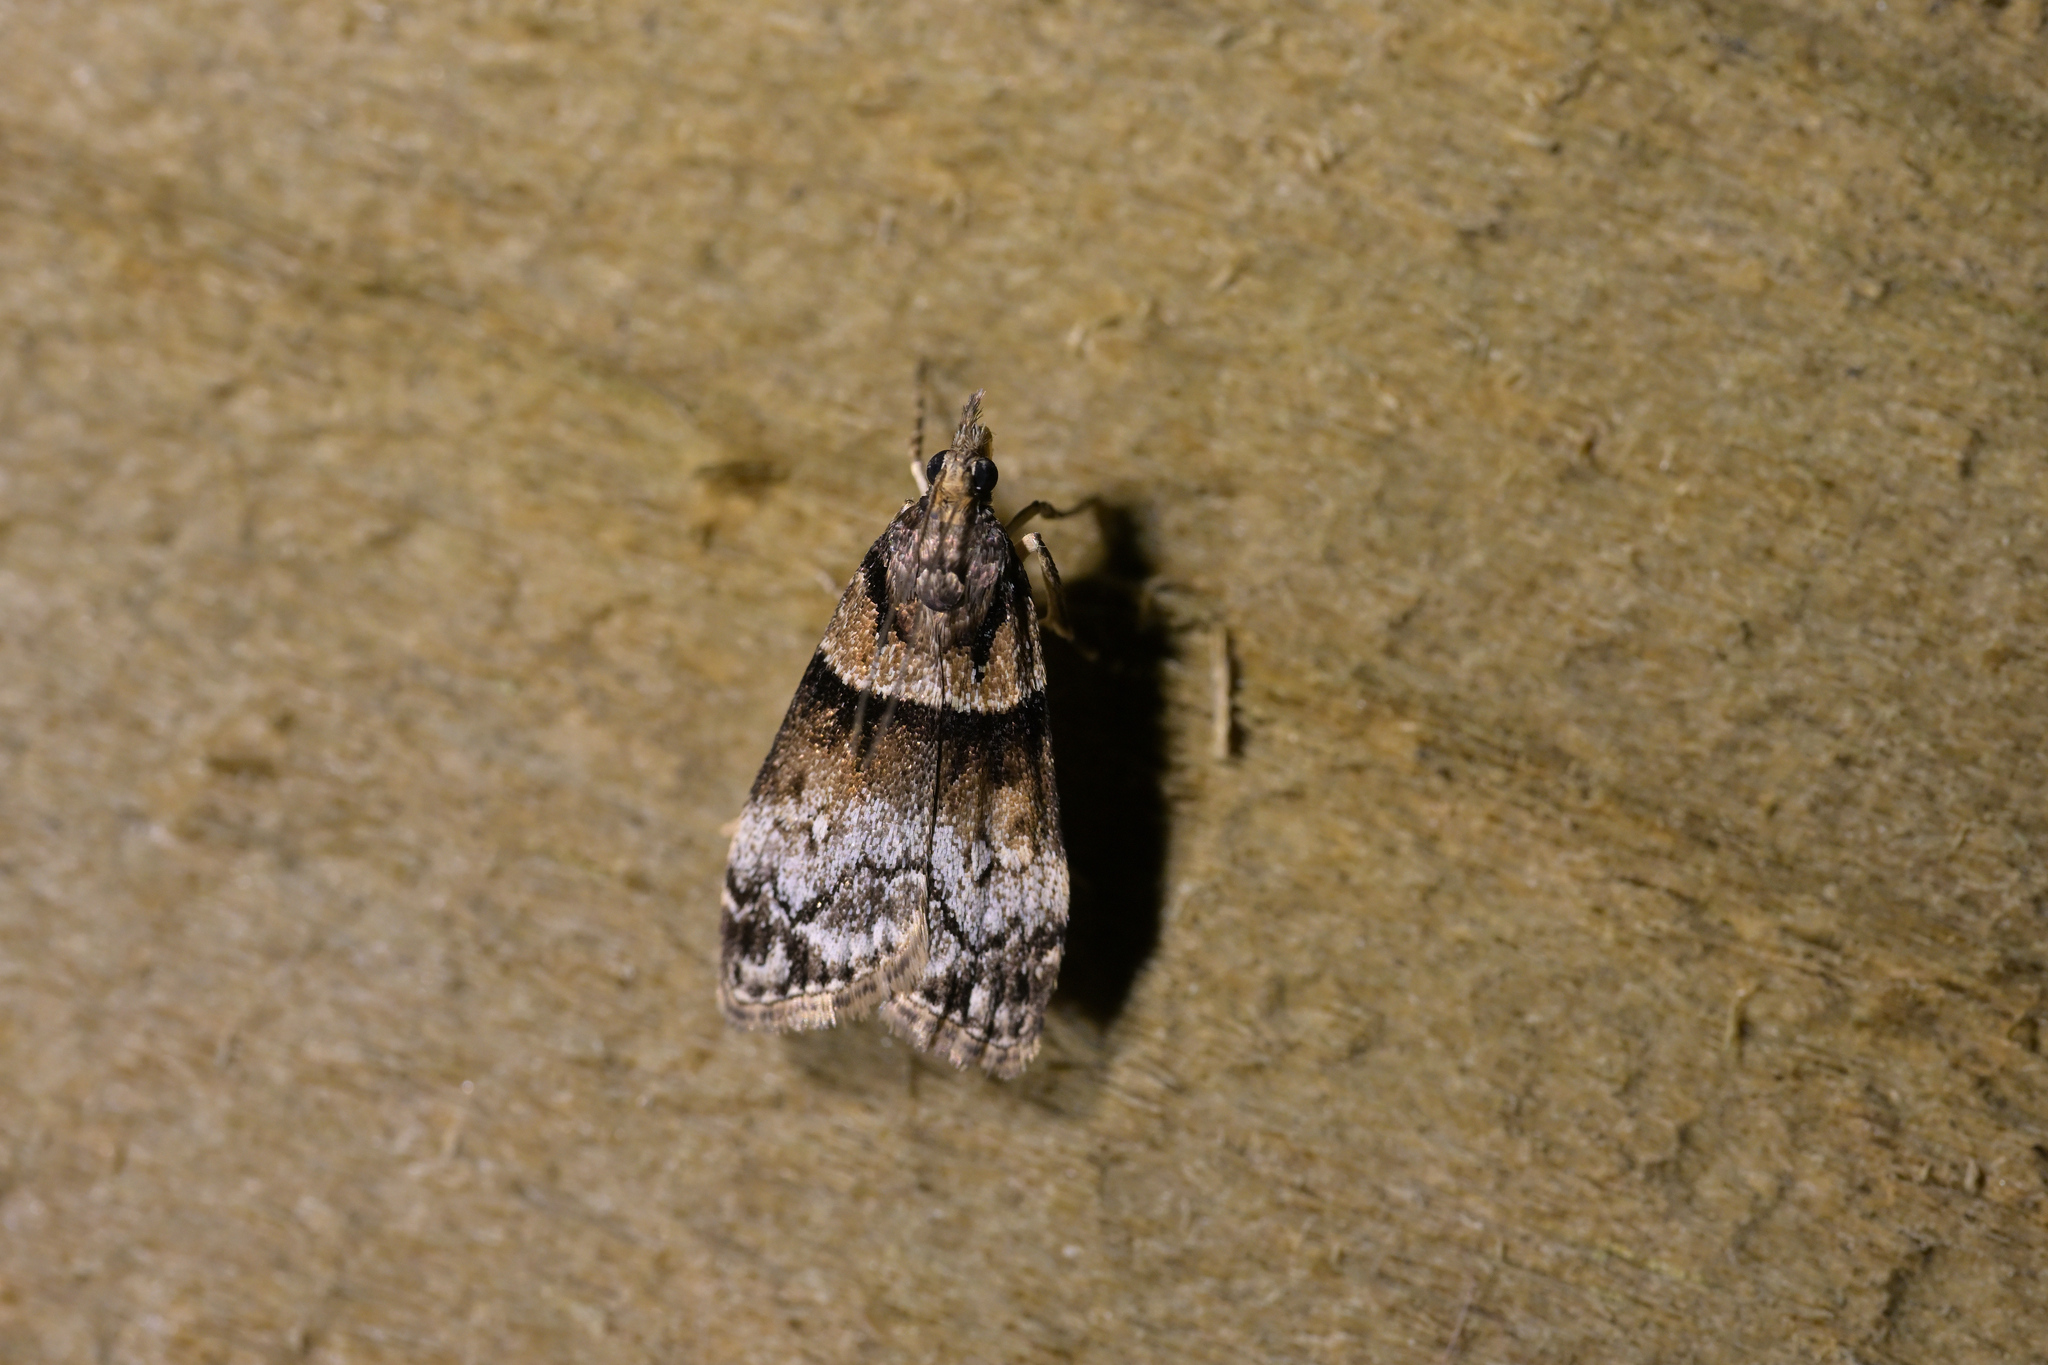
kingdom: Animalia
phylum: Arthropoda
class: Insecta
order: Lepidoptera
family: Crambidae
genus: Eudonia
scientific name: Eudonia colpota
